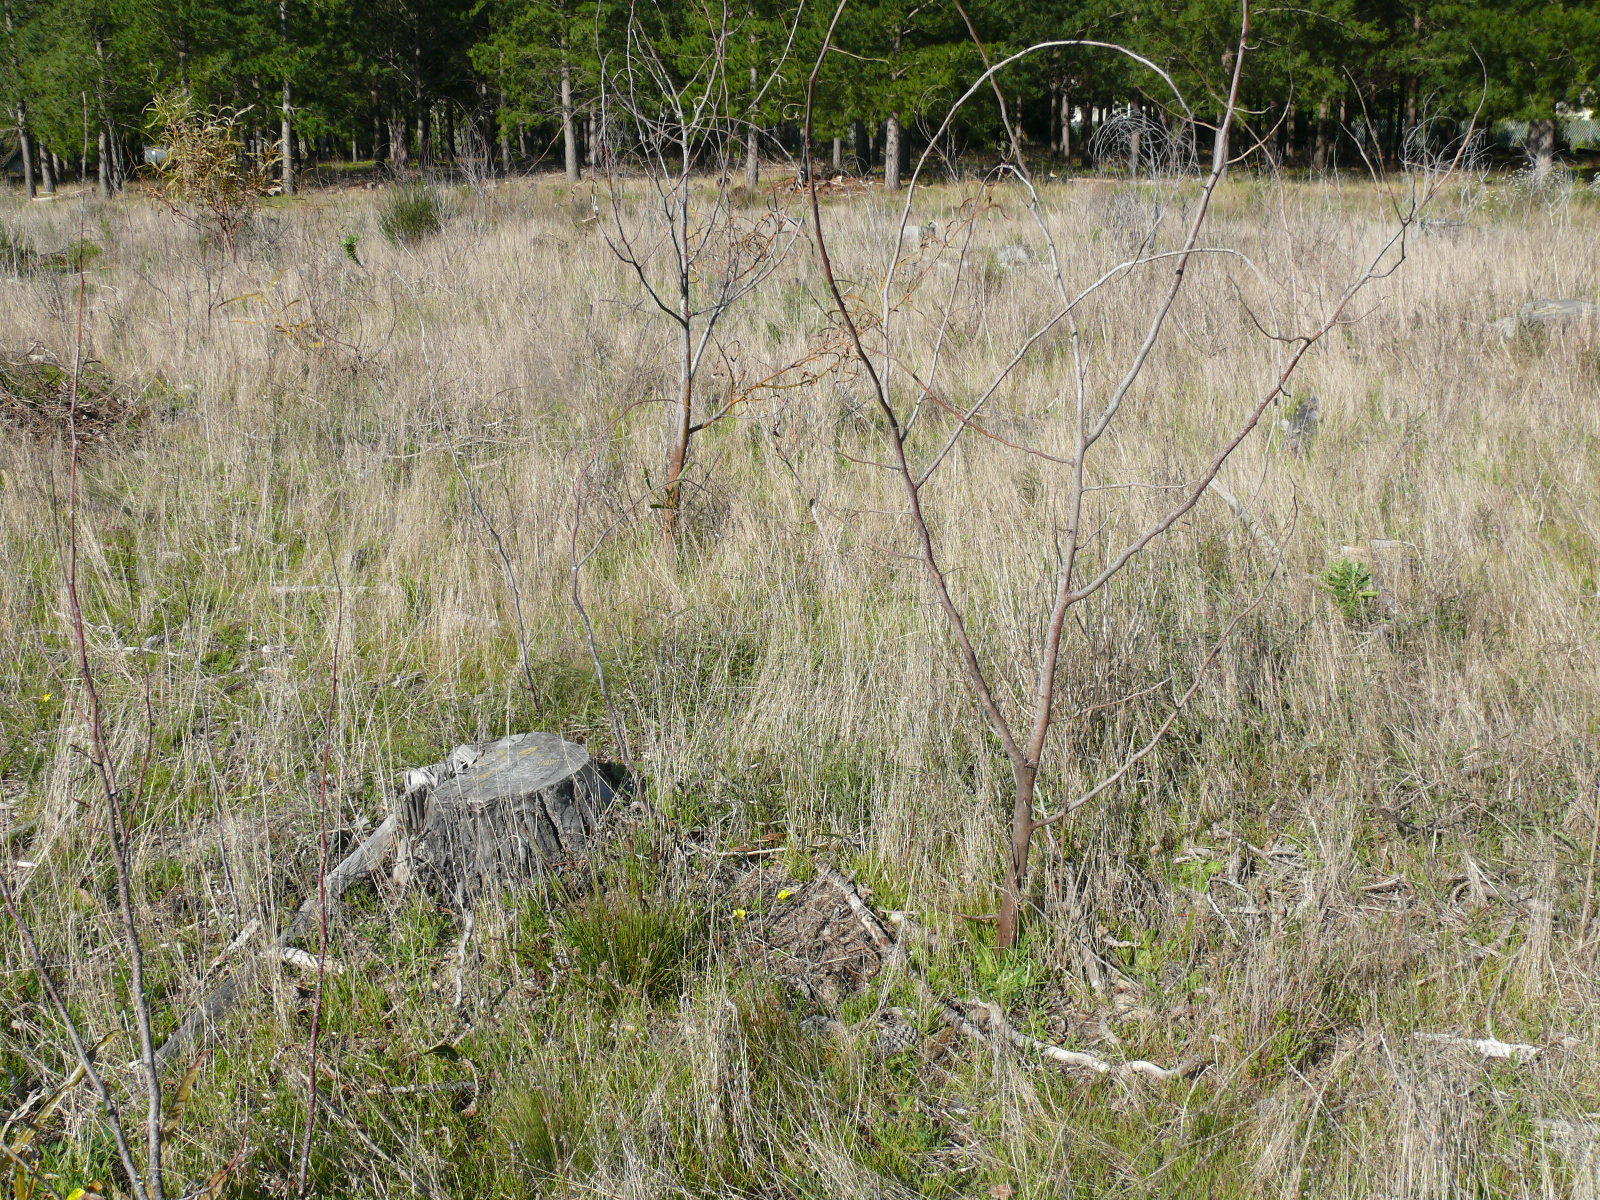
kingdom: Plantae
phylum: Tracheophyta
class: Magnoliopsida
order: Fabales
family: Fabaceae
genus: Acacia
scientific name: Acacia saligna
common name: Orange wattle
